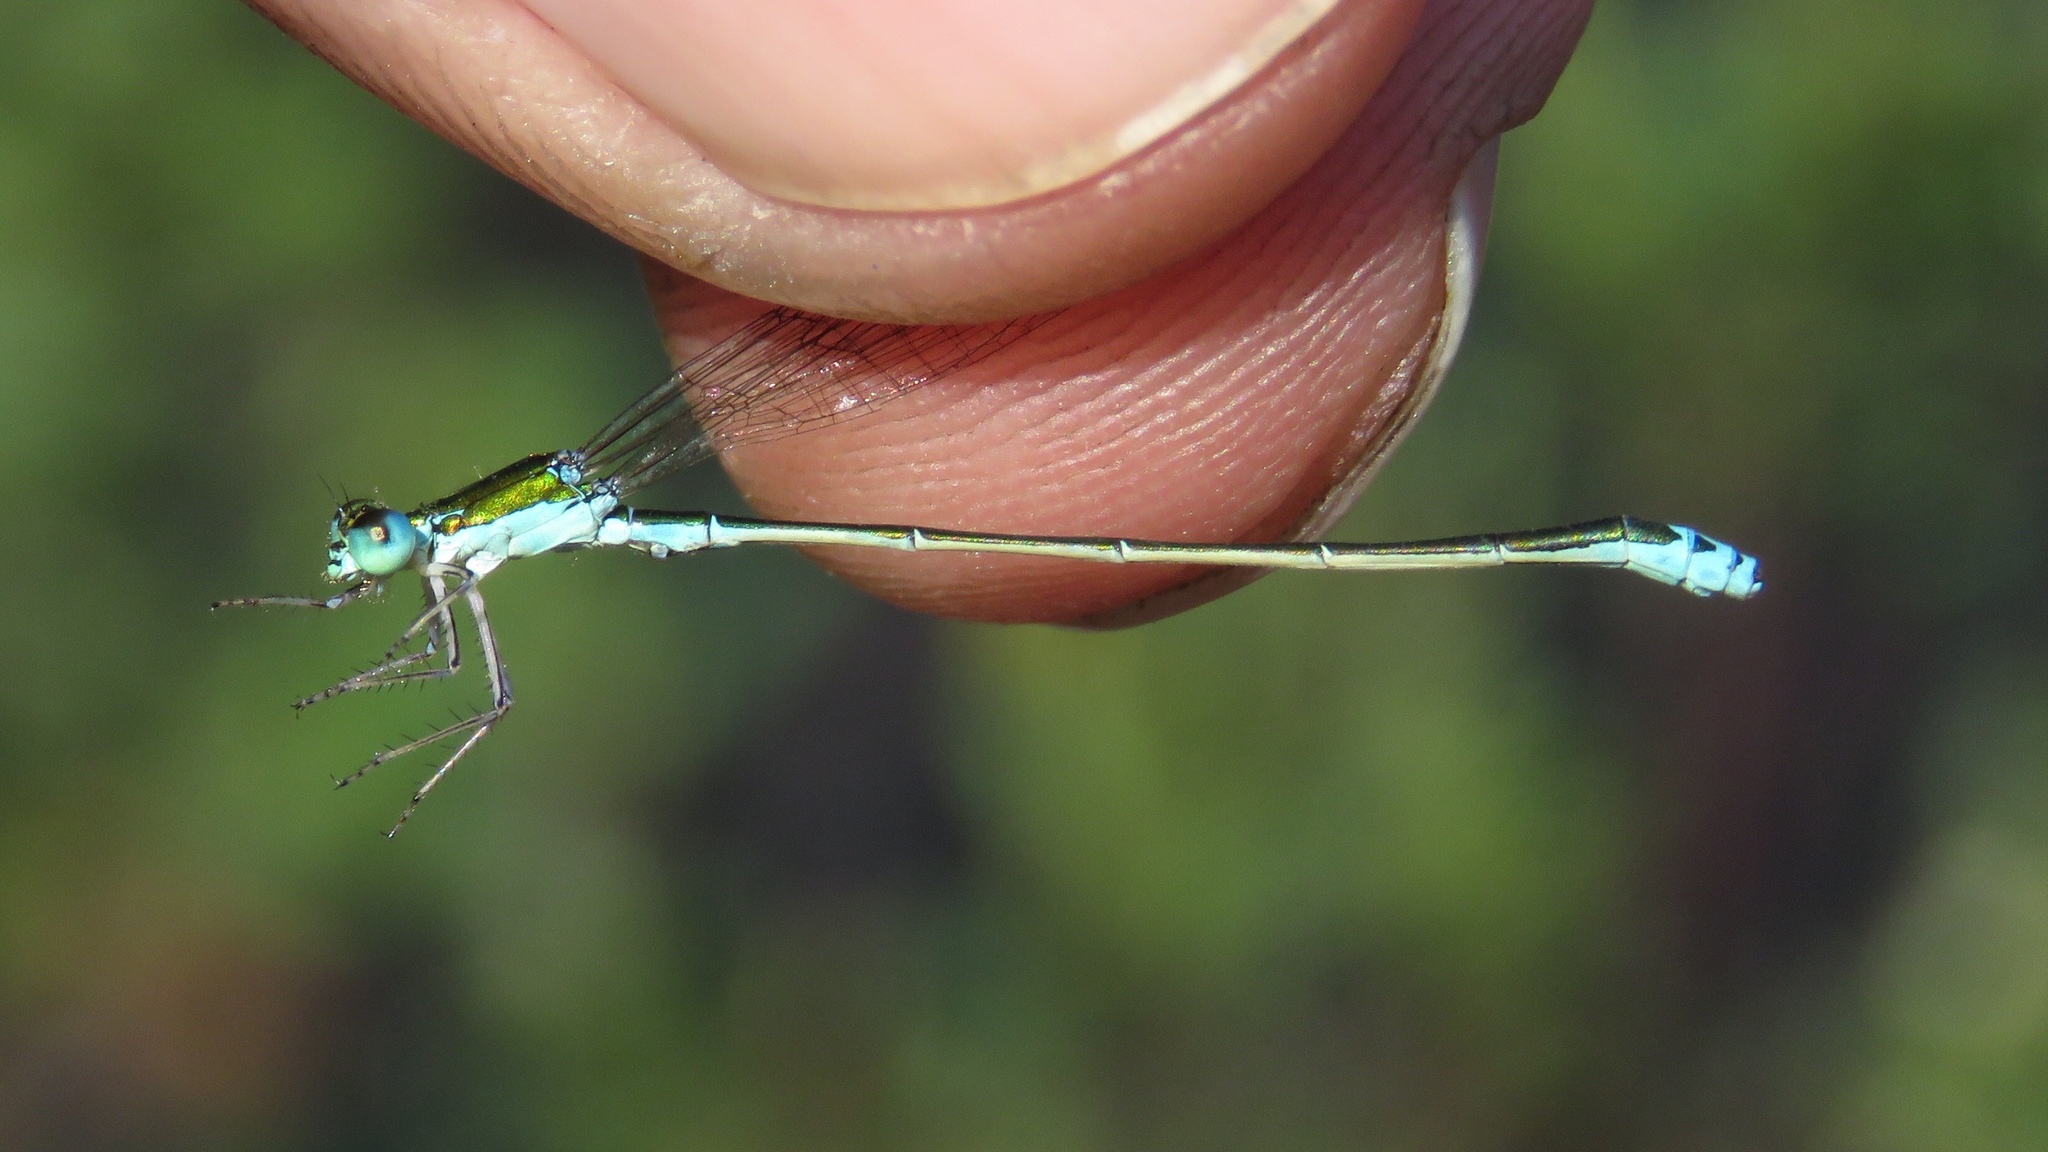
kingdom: Animalia
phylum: Arthropoda
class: Insecta
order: Odonata
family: Coenagrionidae
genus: Nehalennia
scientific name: Nehalennia irene
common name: Sedge sprite
